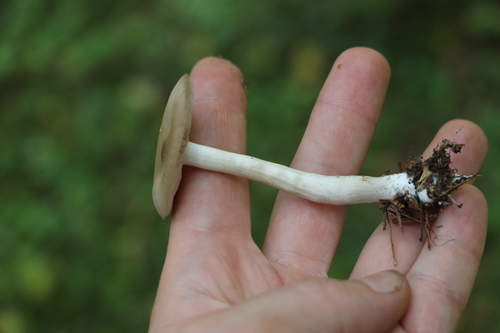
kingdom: Fungi
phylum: Basidiomycota
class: Agaricomycetes
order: Agaricales
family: Entolomataceae
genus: Entoloma
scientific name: Entoloma sericeum
